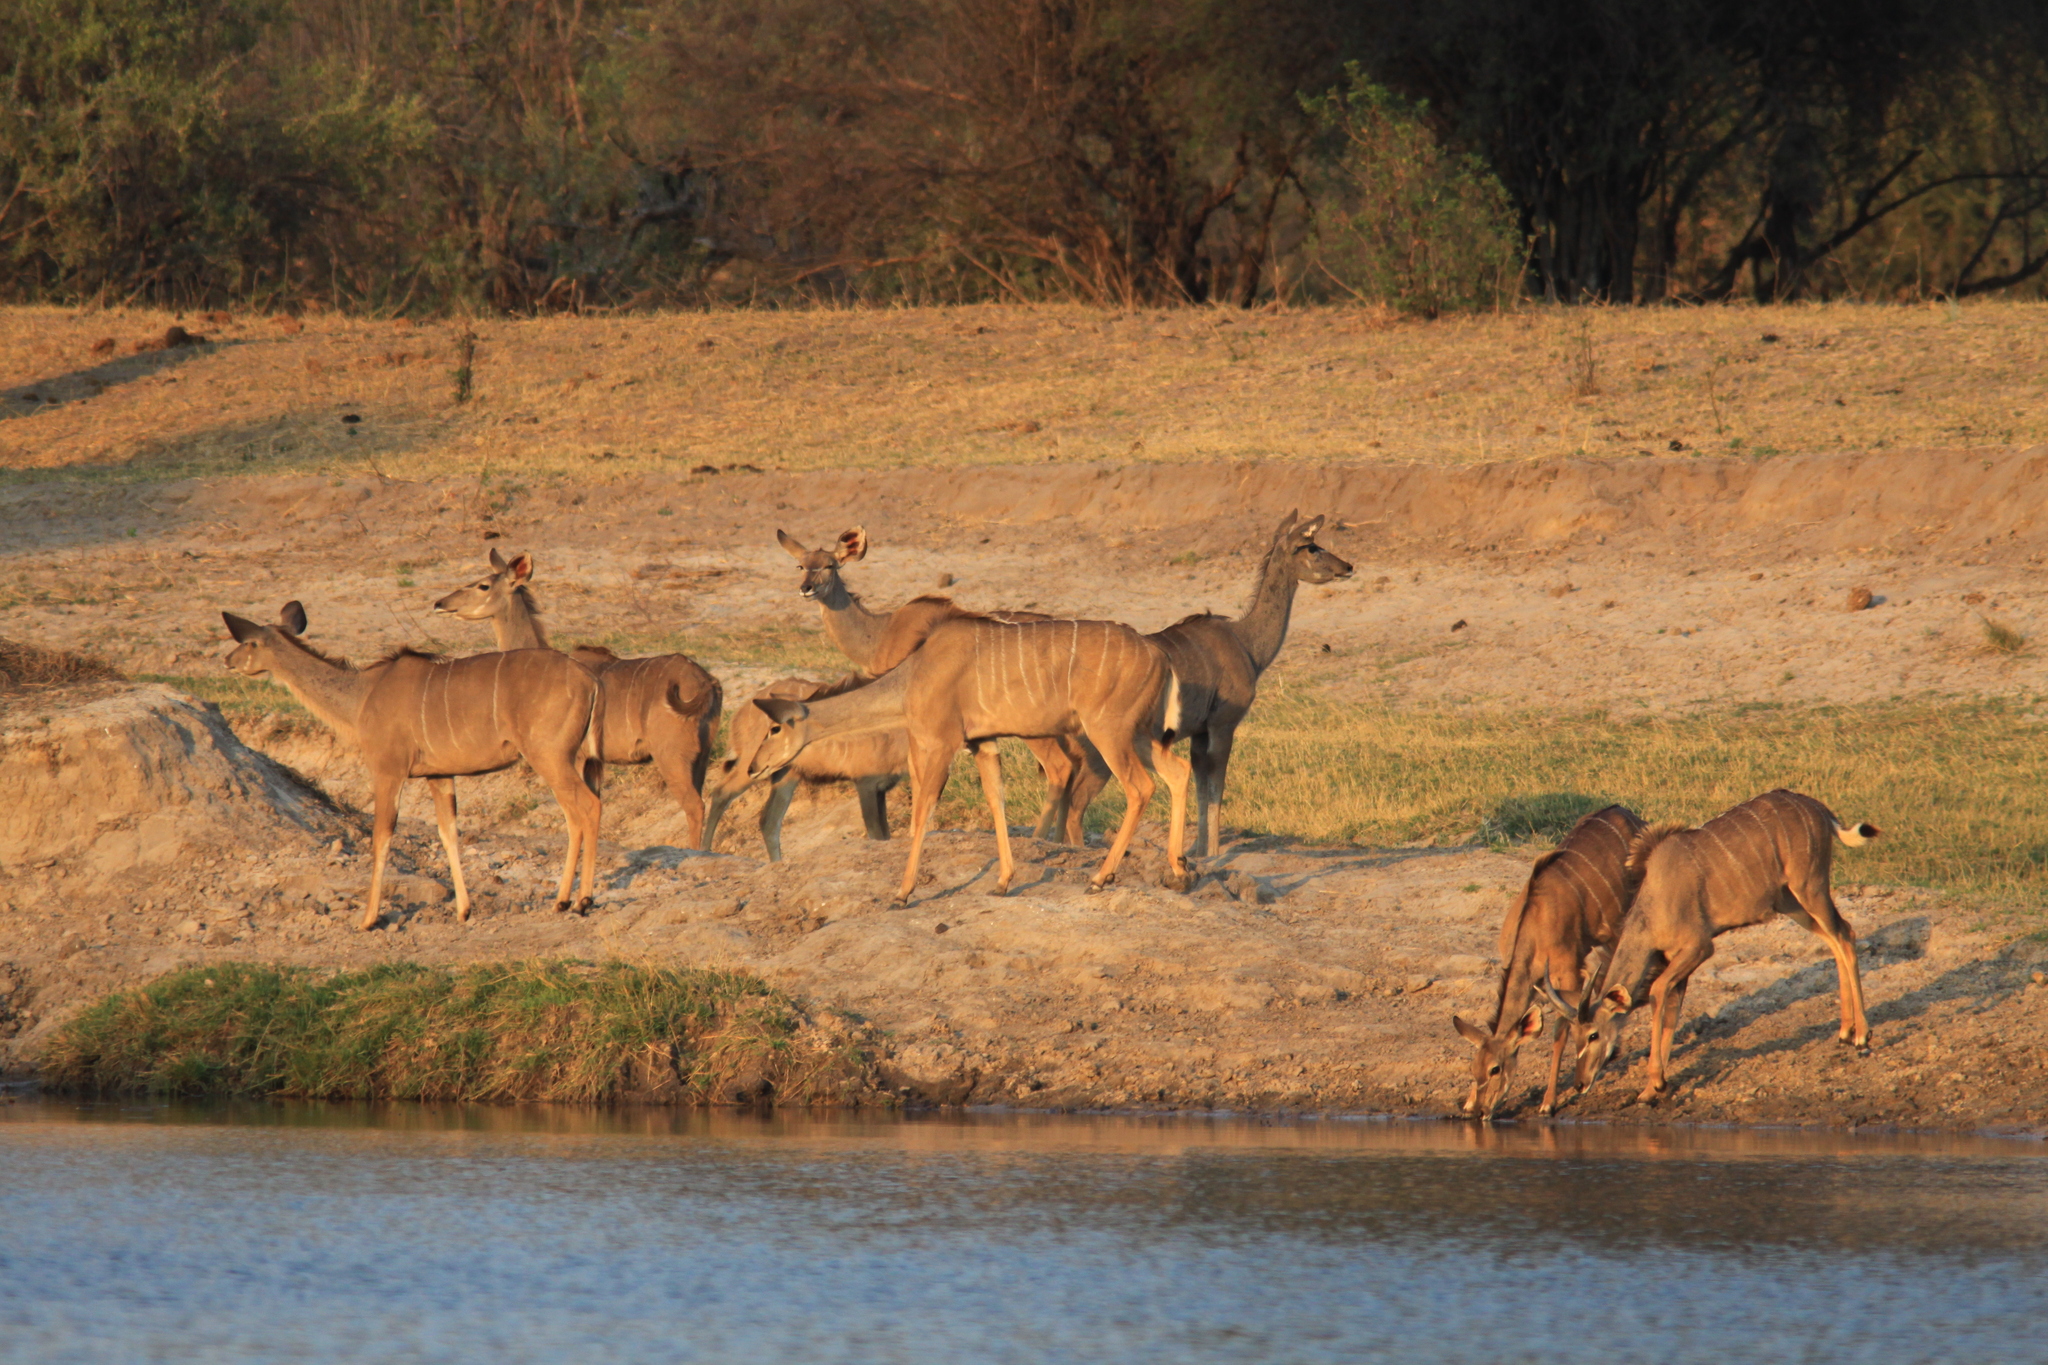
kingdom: Animalia
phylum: Chordata
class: Mammalia
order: Artiodactyla
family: Bovidae
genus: Tragelaphus
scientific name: Tragelaphus strepsiceros
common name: Greater kudu
